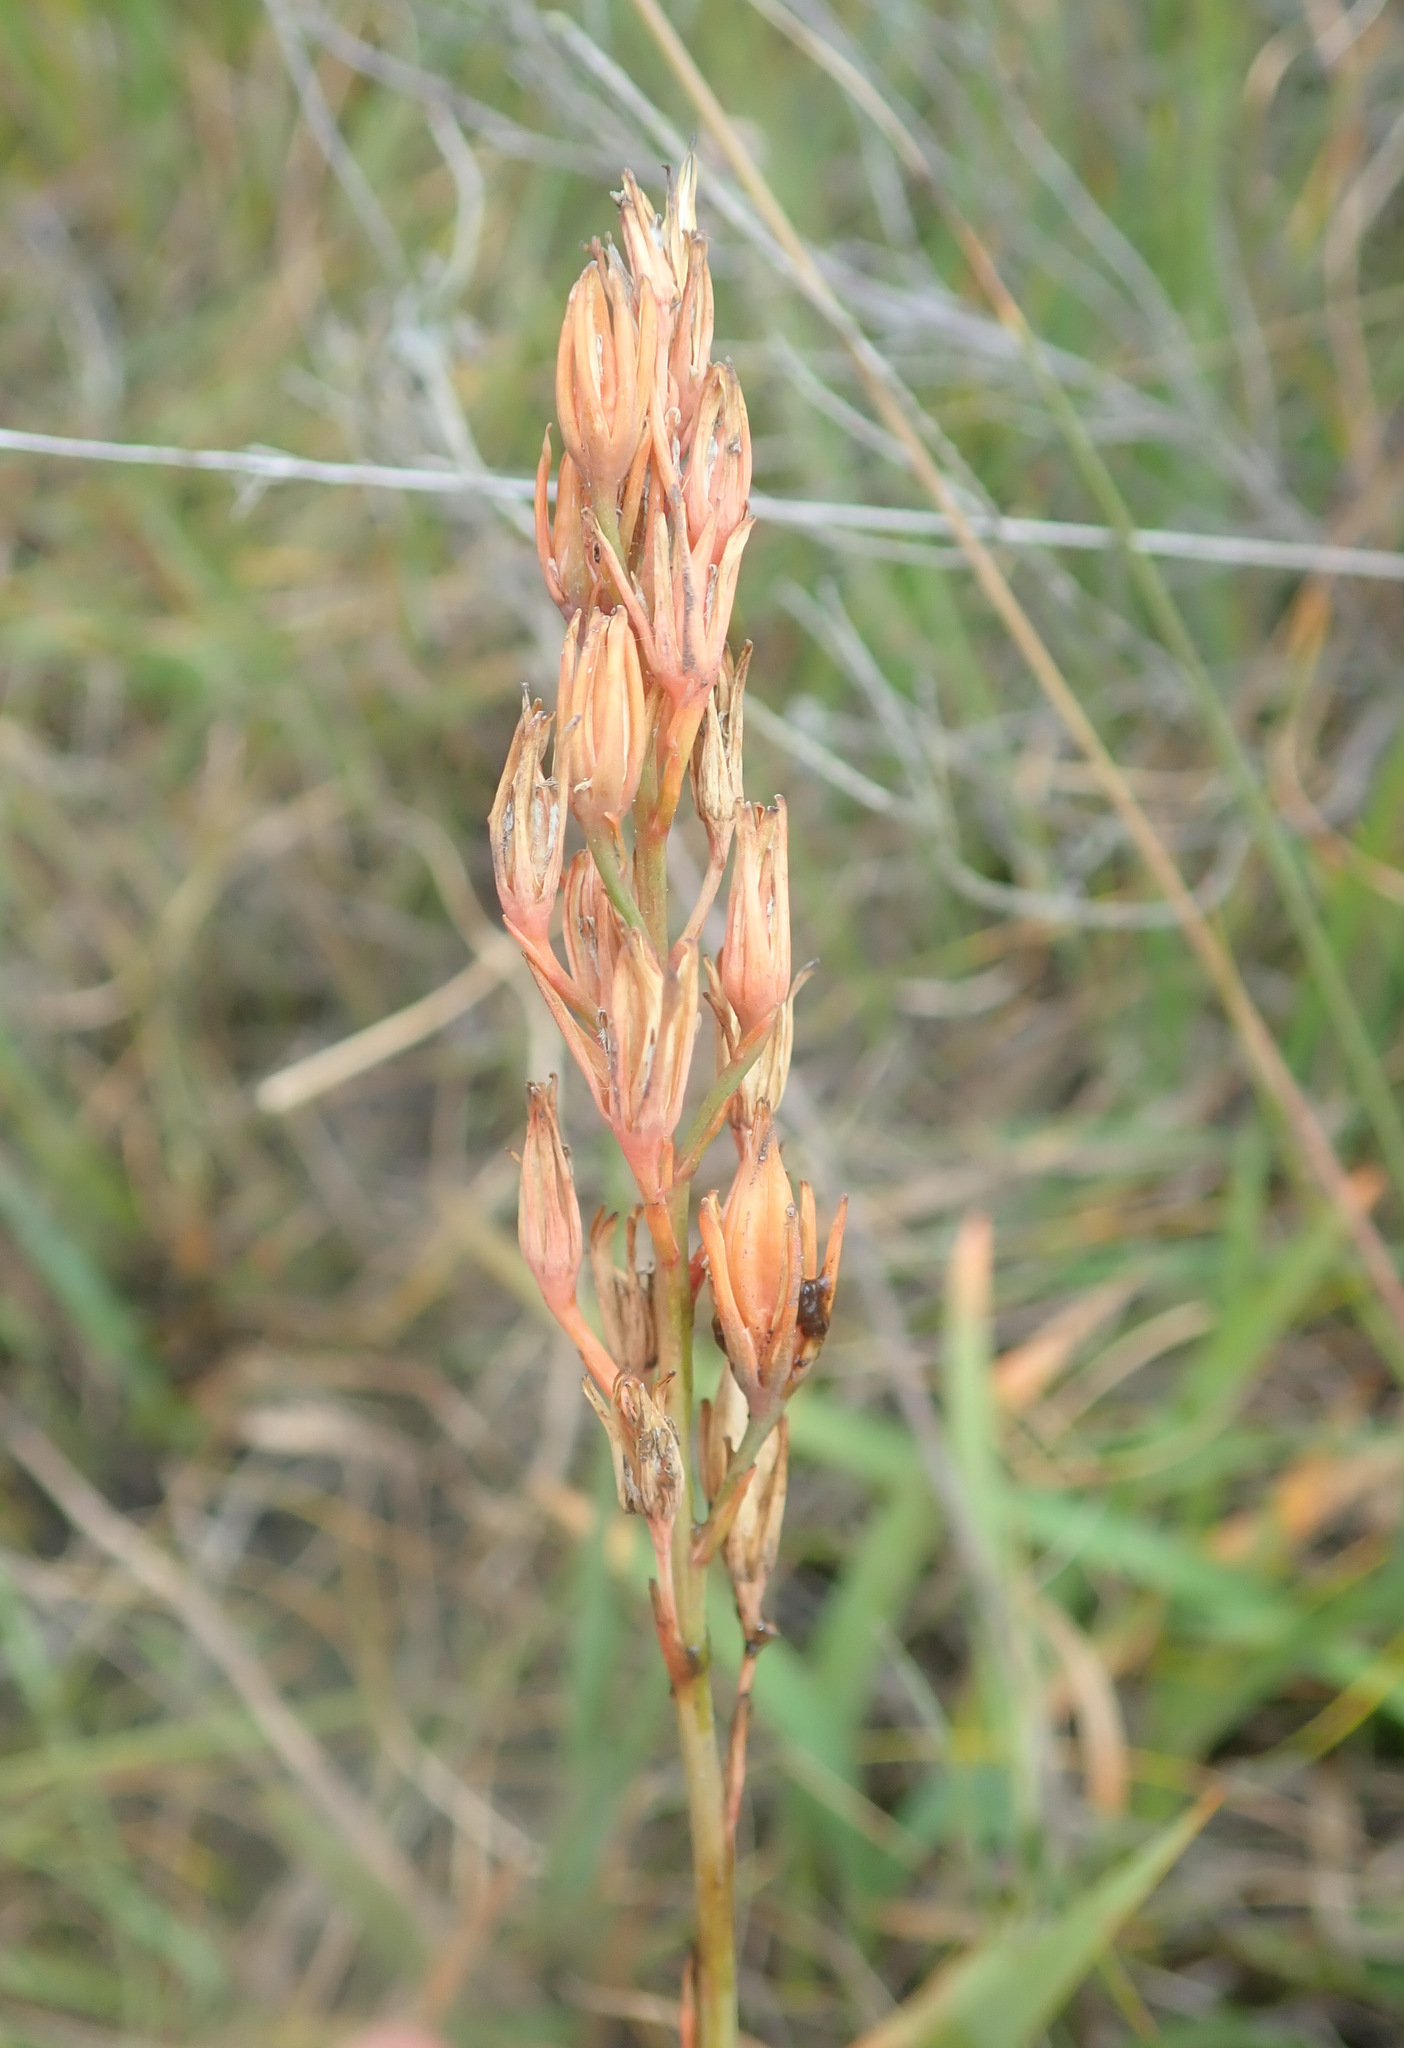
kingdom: Plantae
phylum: Tracheophyta
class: Liliopsida
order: Dioscoreales
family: Nartheciaceae
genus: Narthecium
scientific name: Narthecium ossifragum
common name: Bog asphodel
